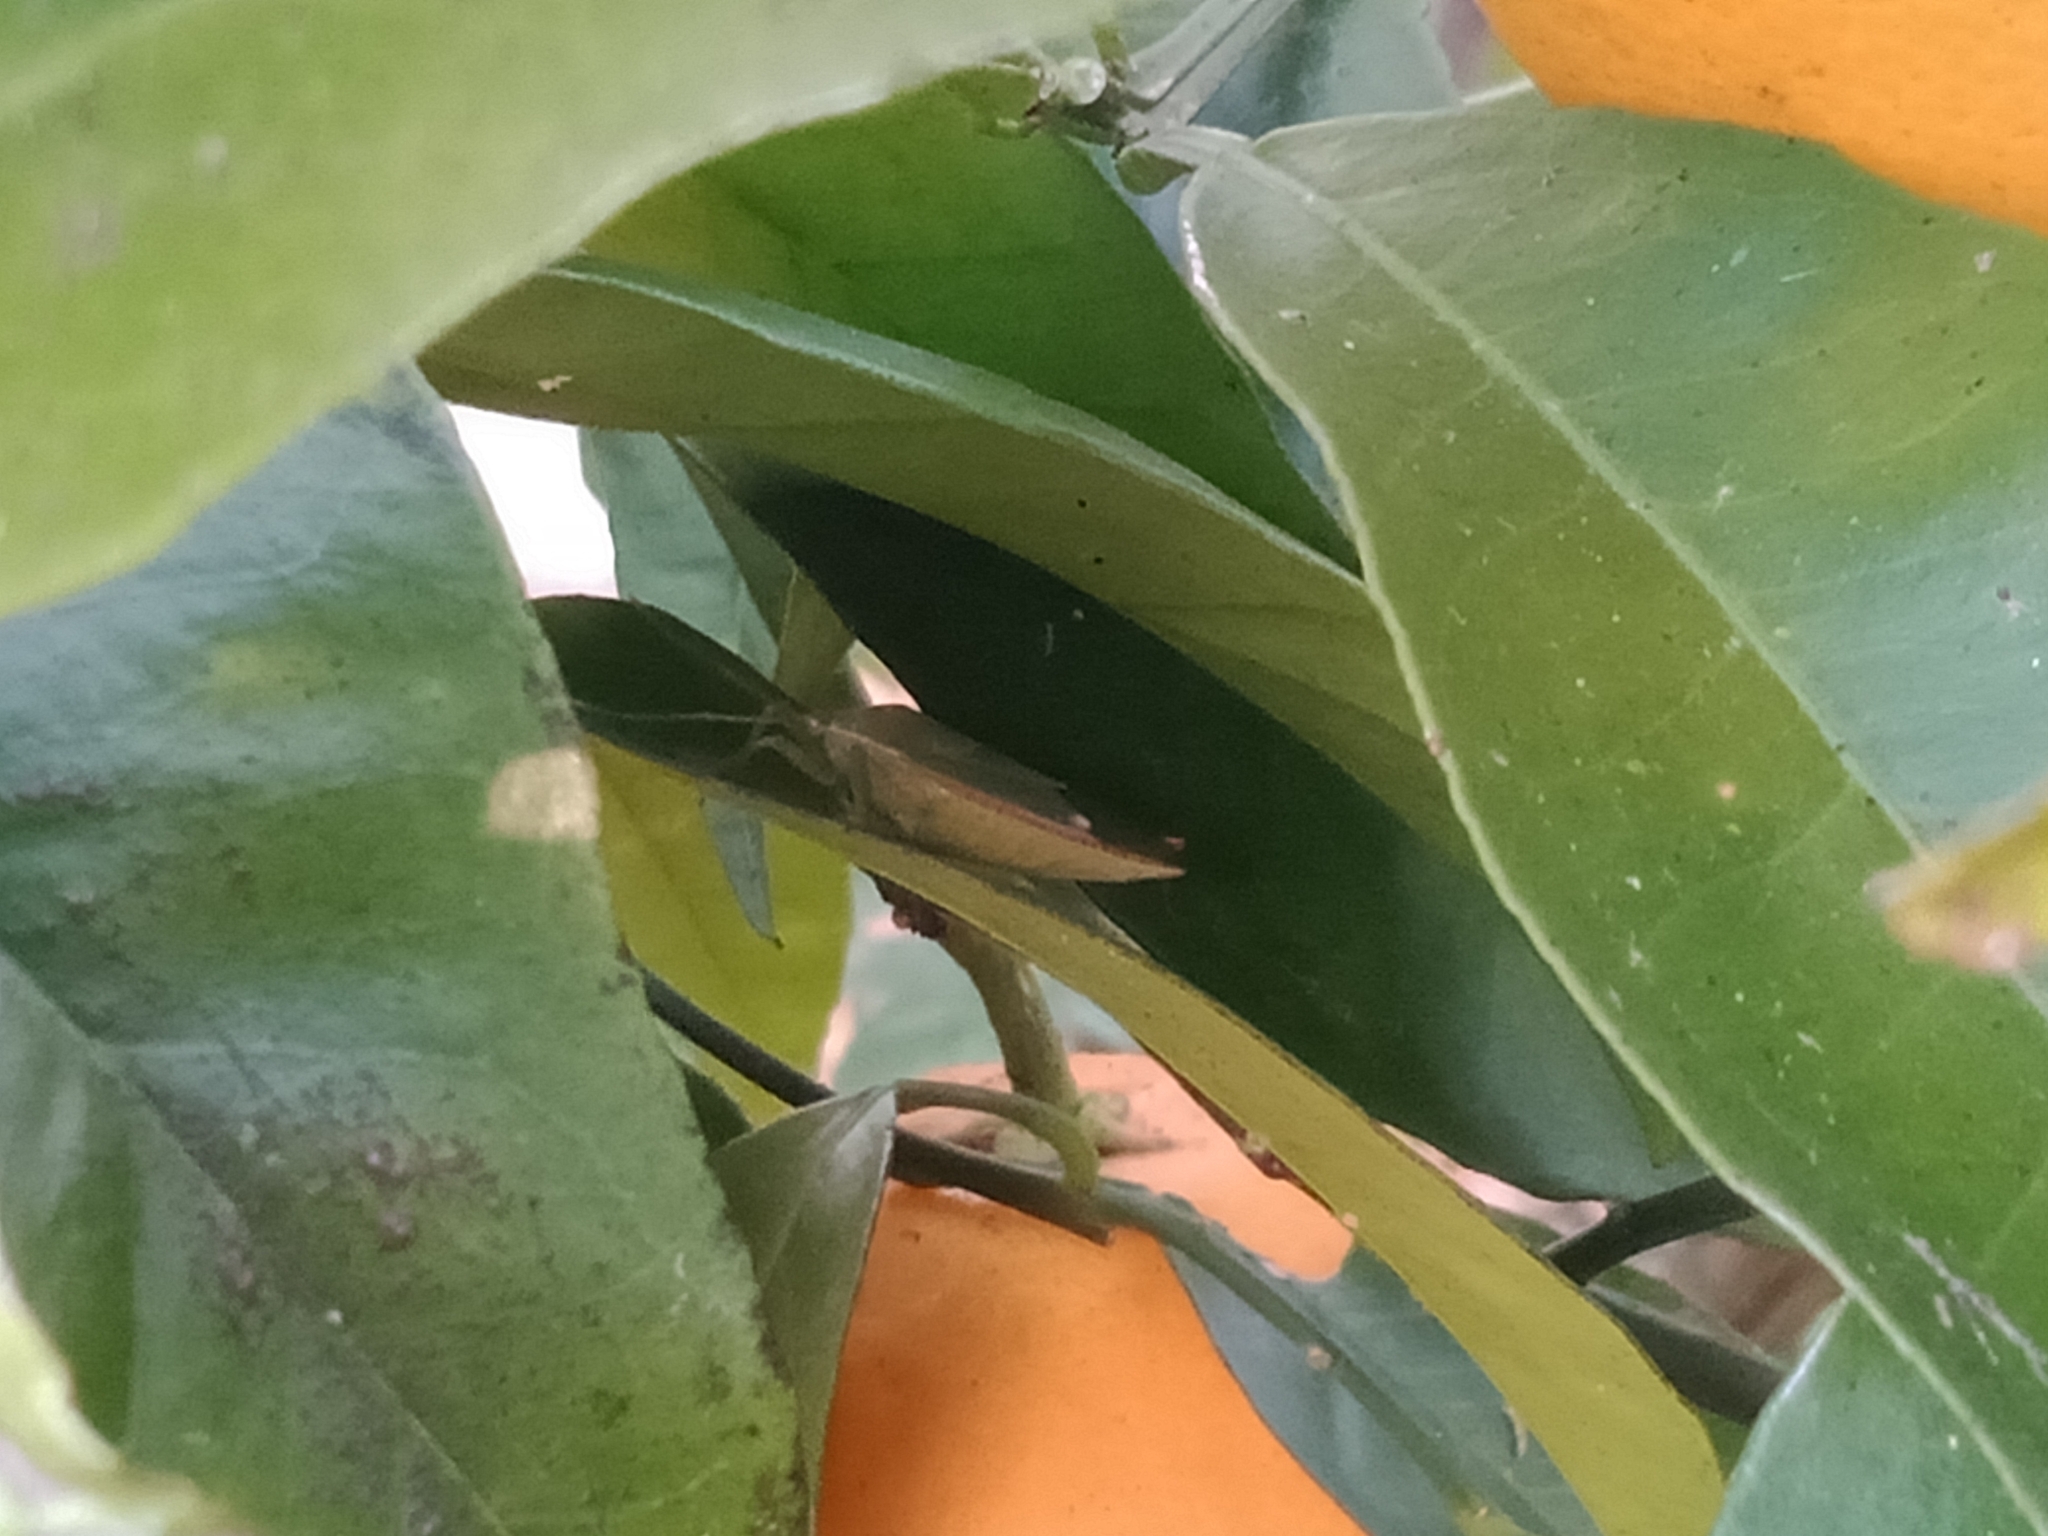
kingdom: Animalia
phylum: Arthropoda
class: Insecta
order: Hemiptera
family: Tessaratomidae
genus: Lyramorpha
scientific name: Lyramorpha rosea
